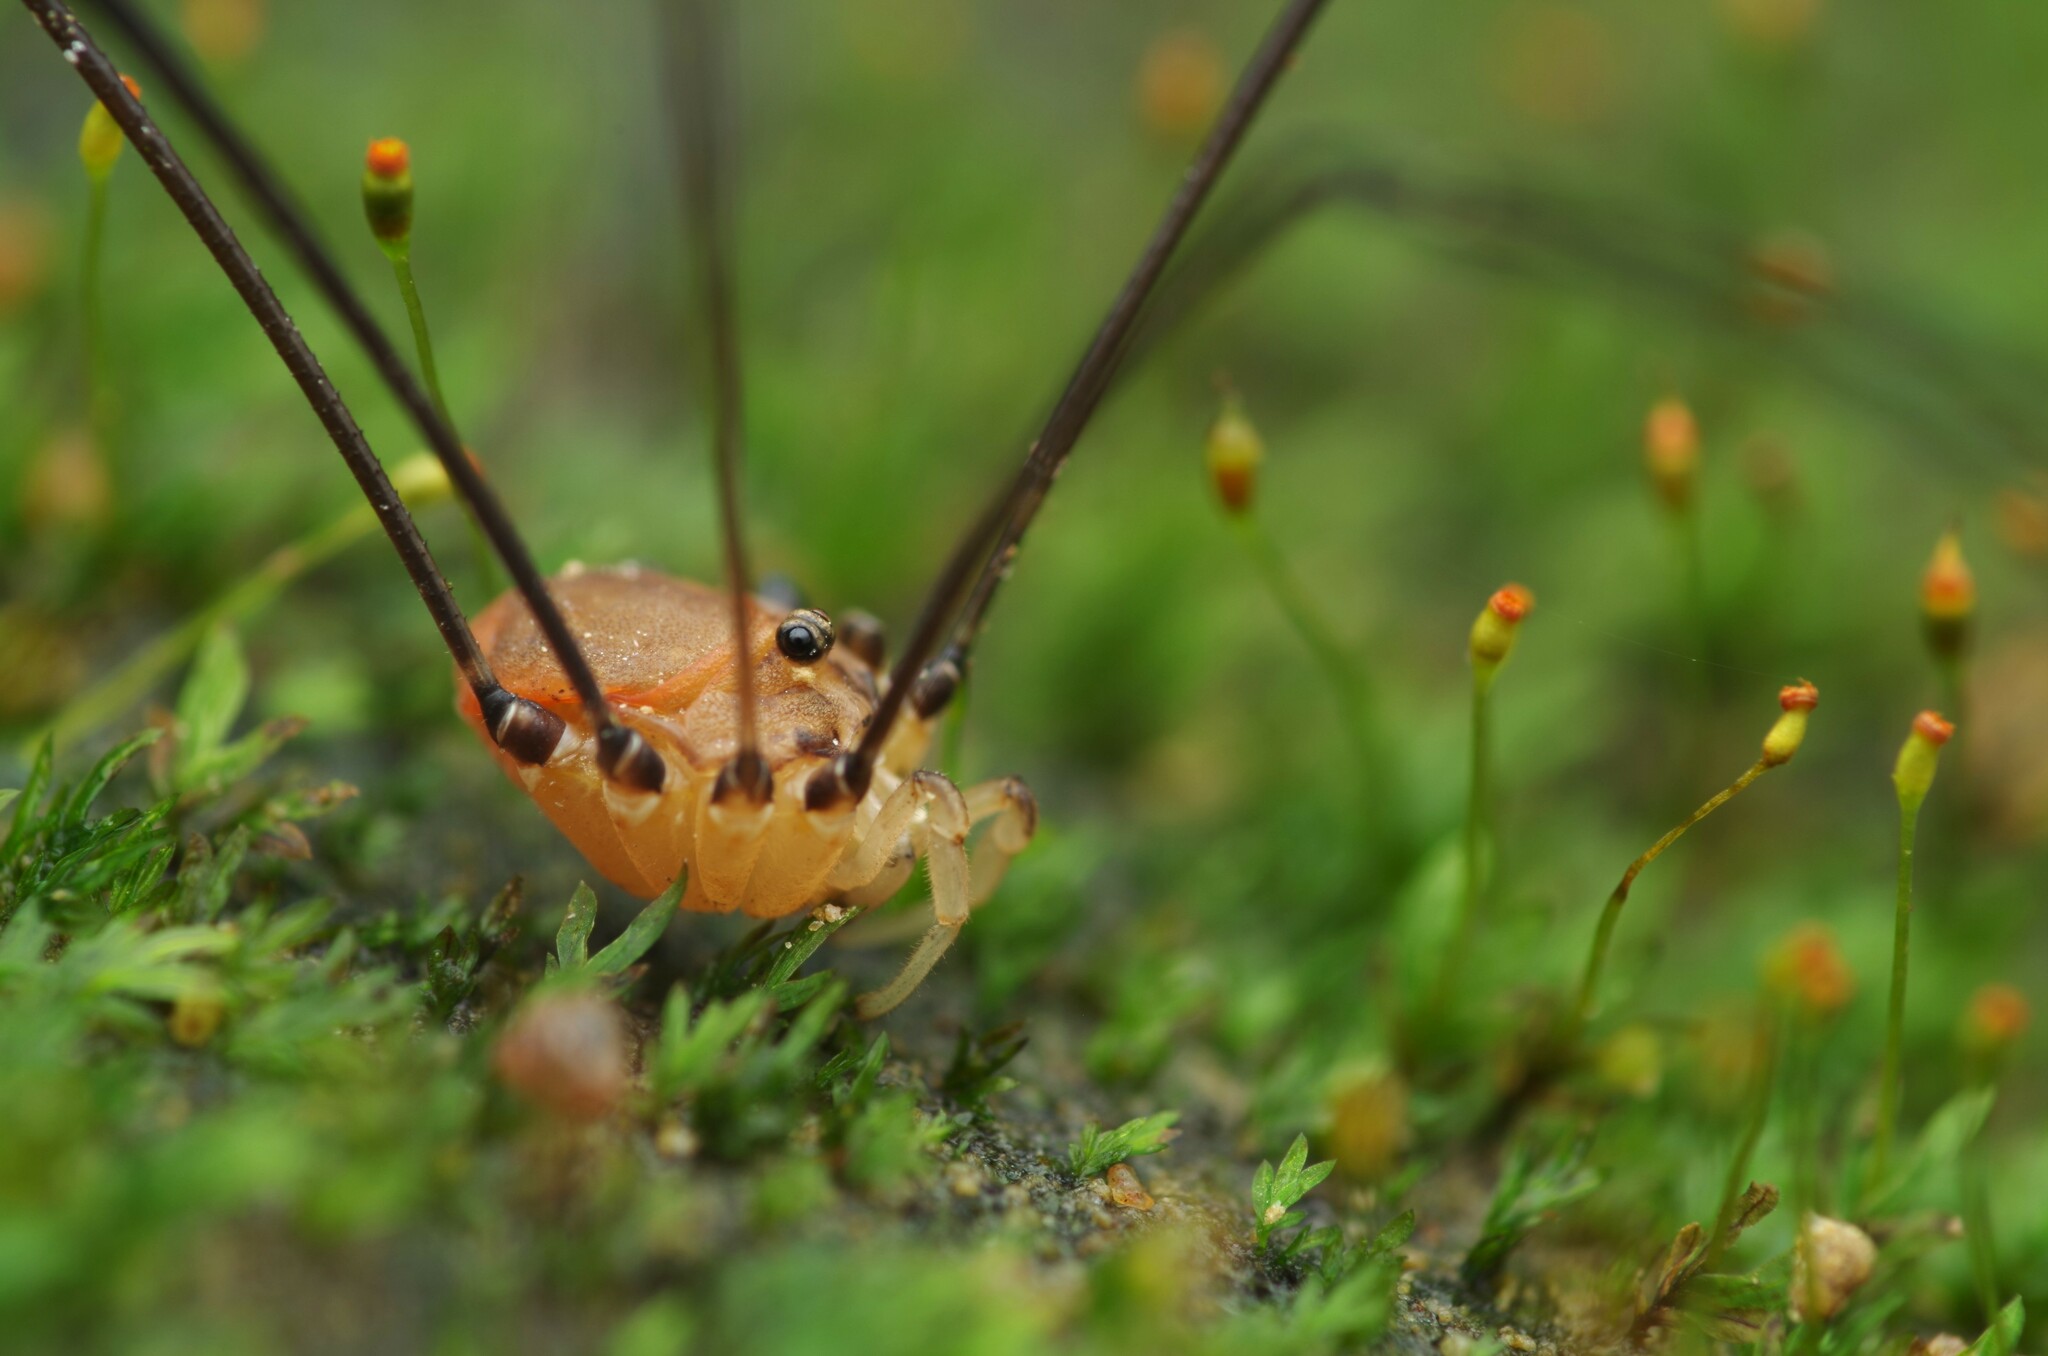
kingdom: Animalia
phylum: Arthropoda
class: Arachnida
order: Opiliones
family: Sclerosomatidae
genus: Leiobunum
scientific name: Leiobunum blackwalli
